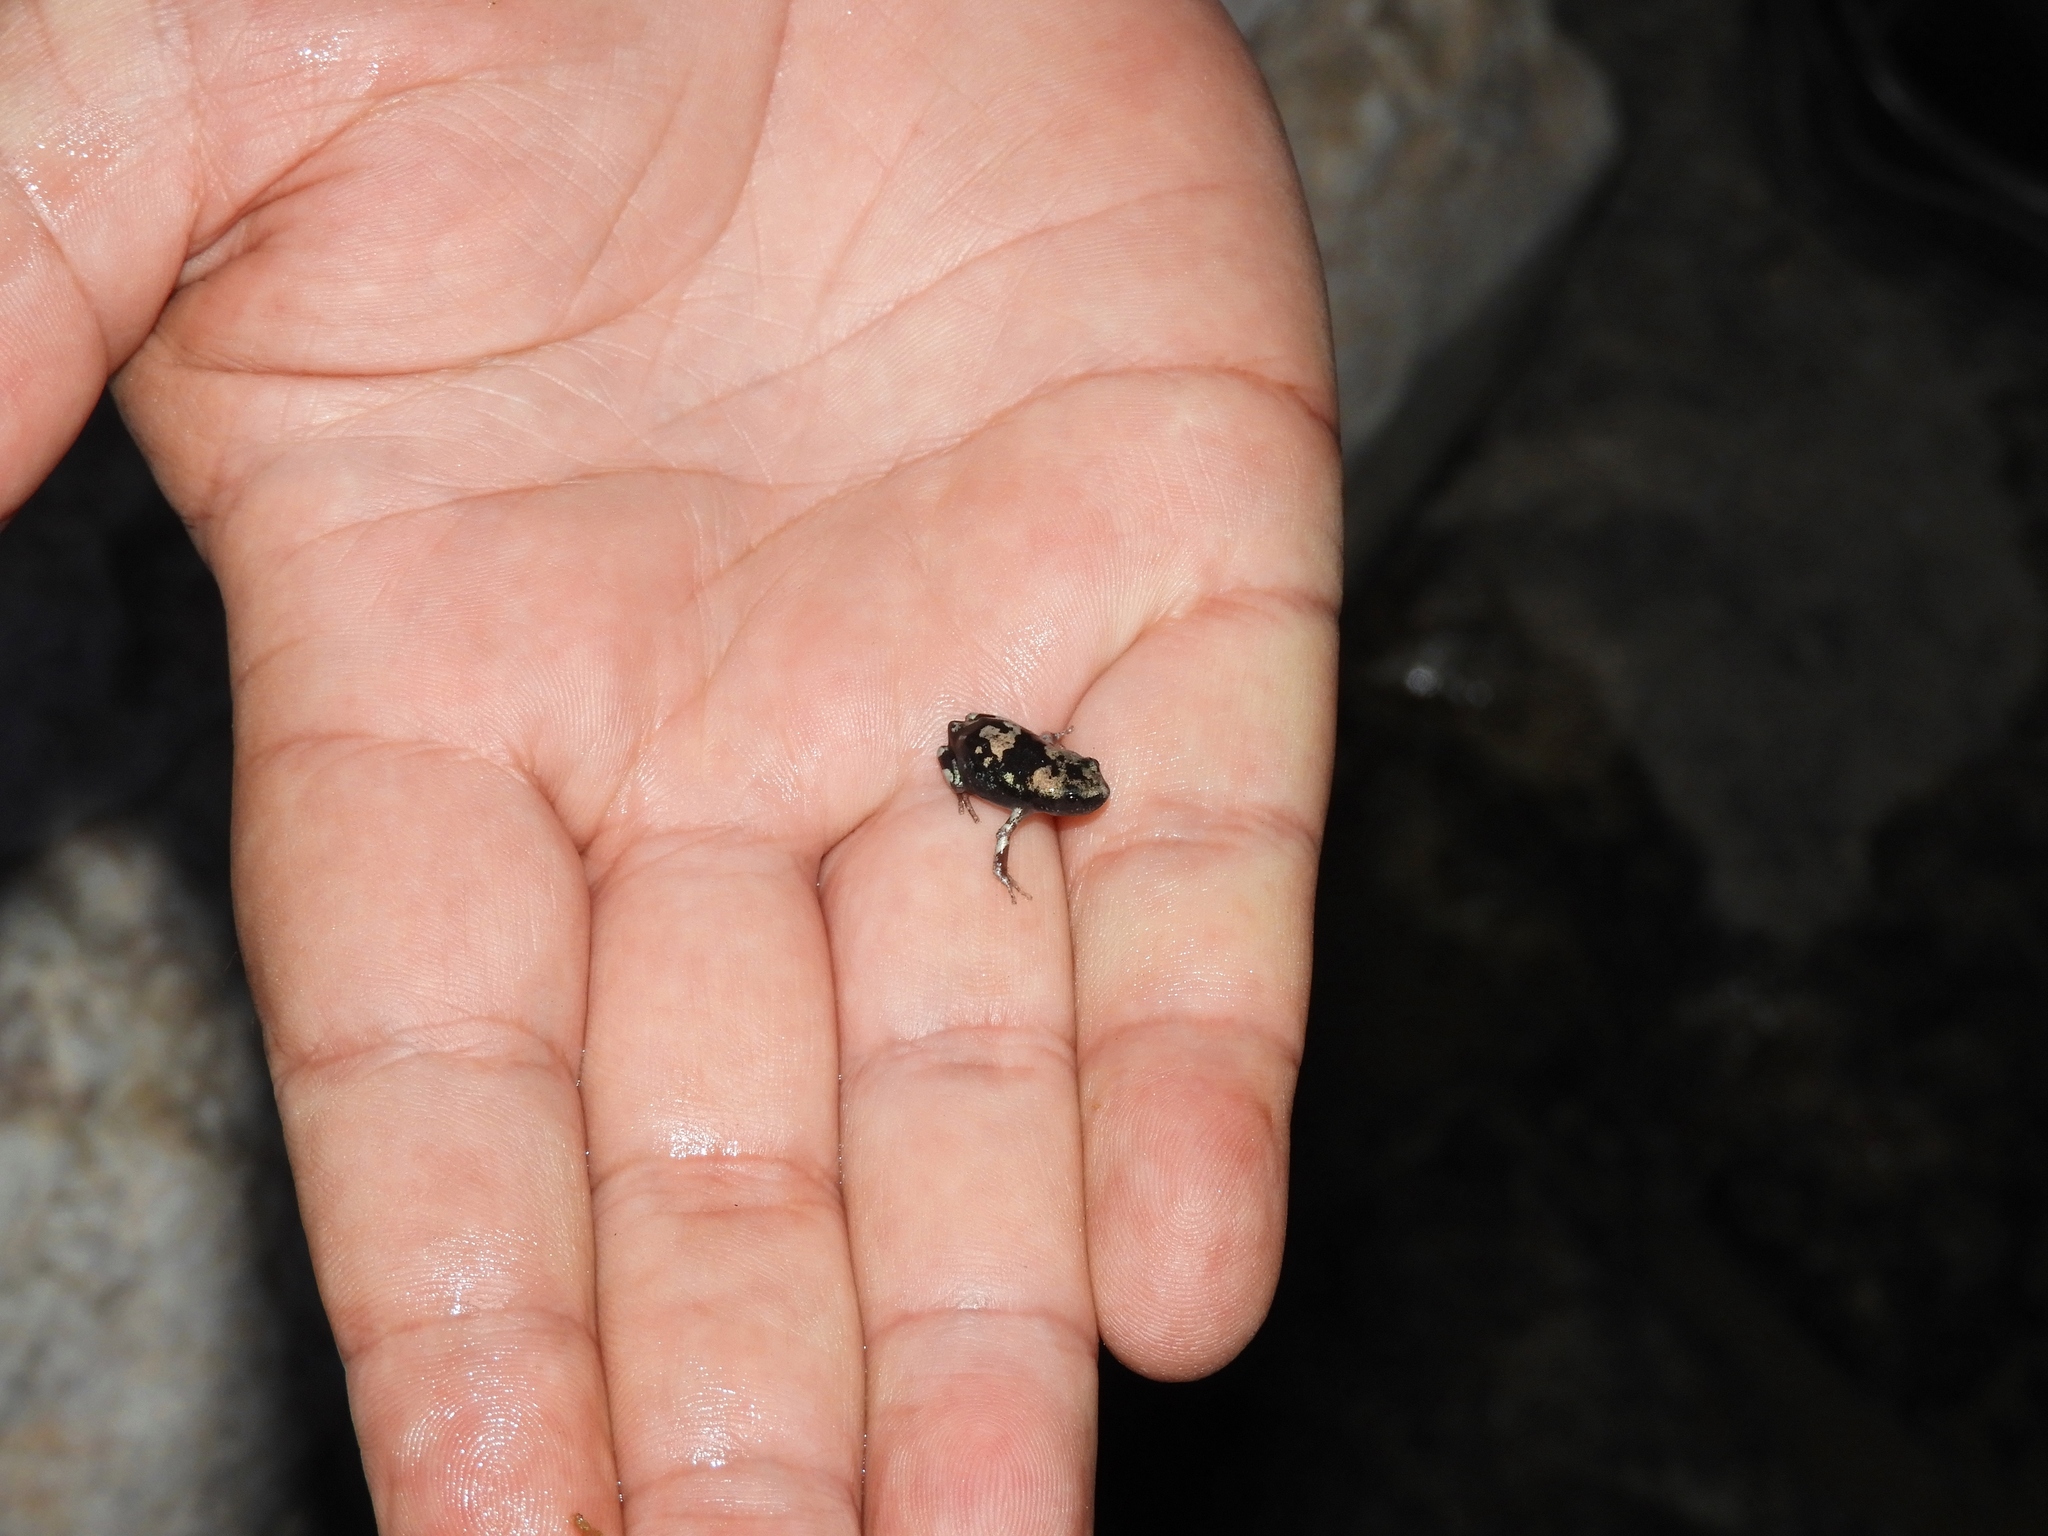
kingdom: Animalia
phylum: Chordata
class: Amphibia
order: Anura
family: Microhylidae
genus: Phrynomantis
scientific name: Phrynomantis annectens
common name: Marbled rubber frog
